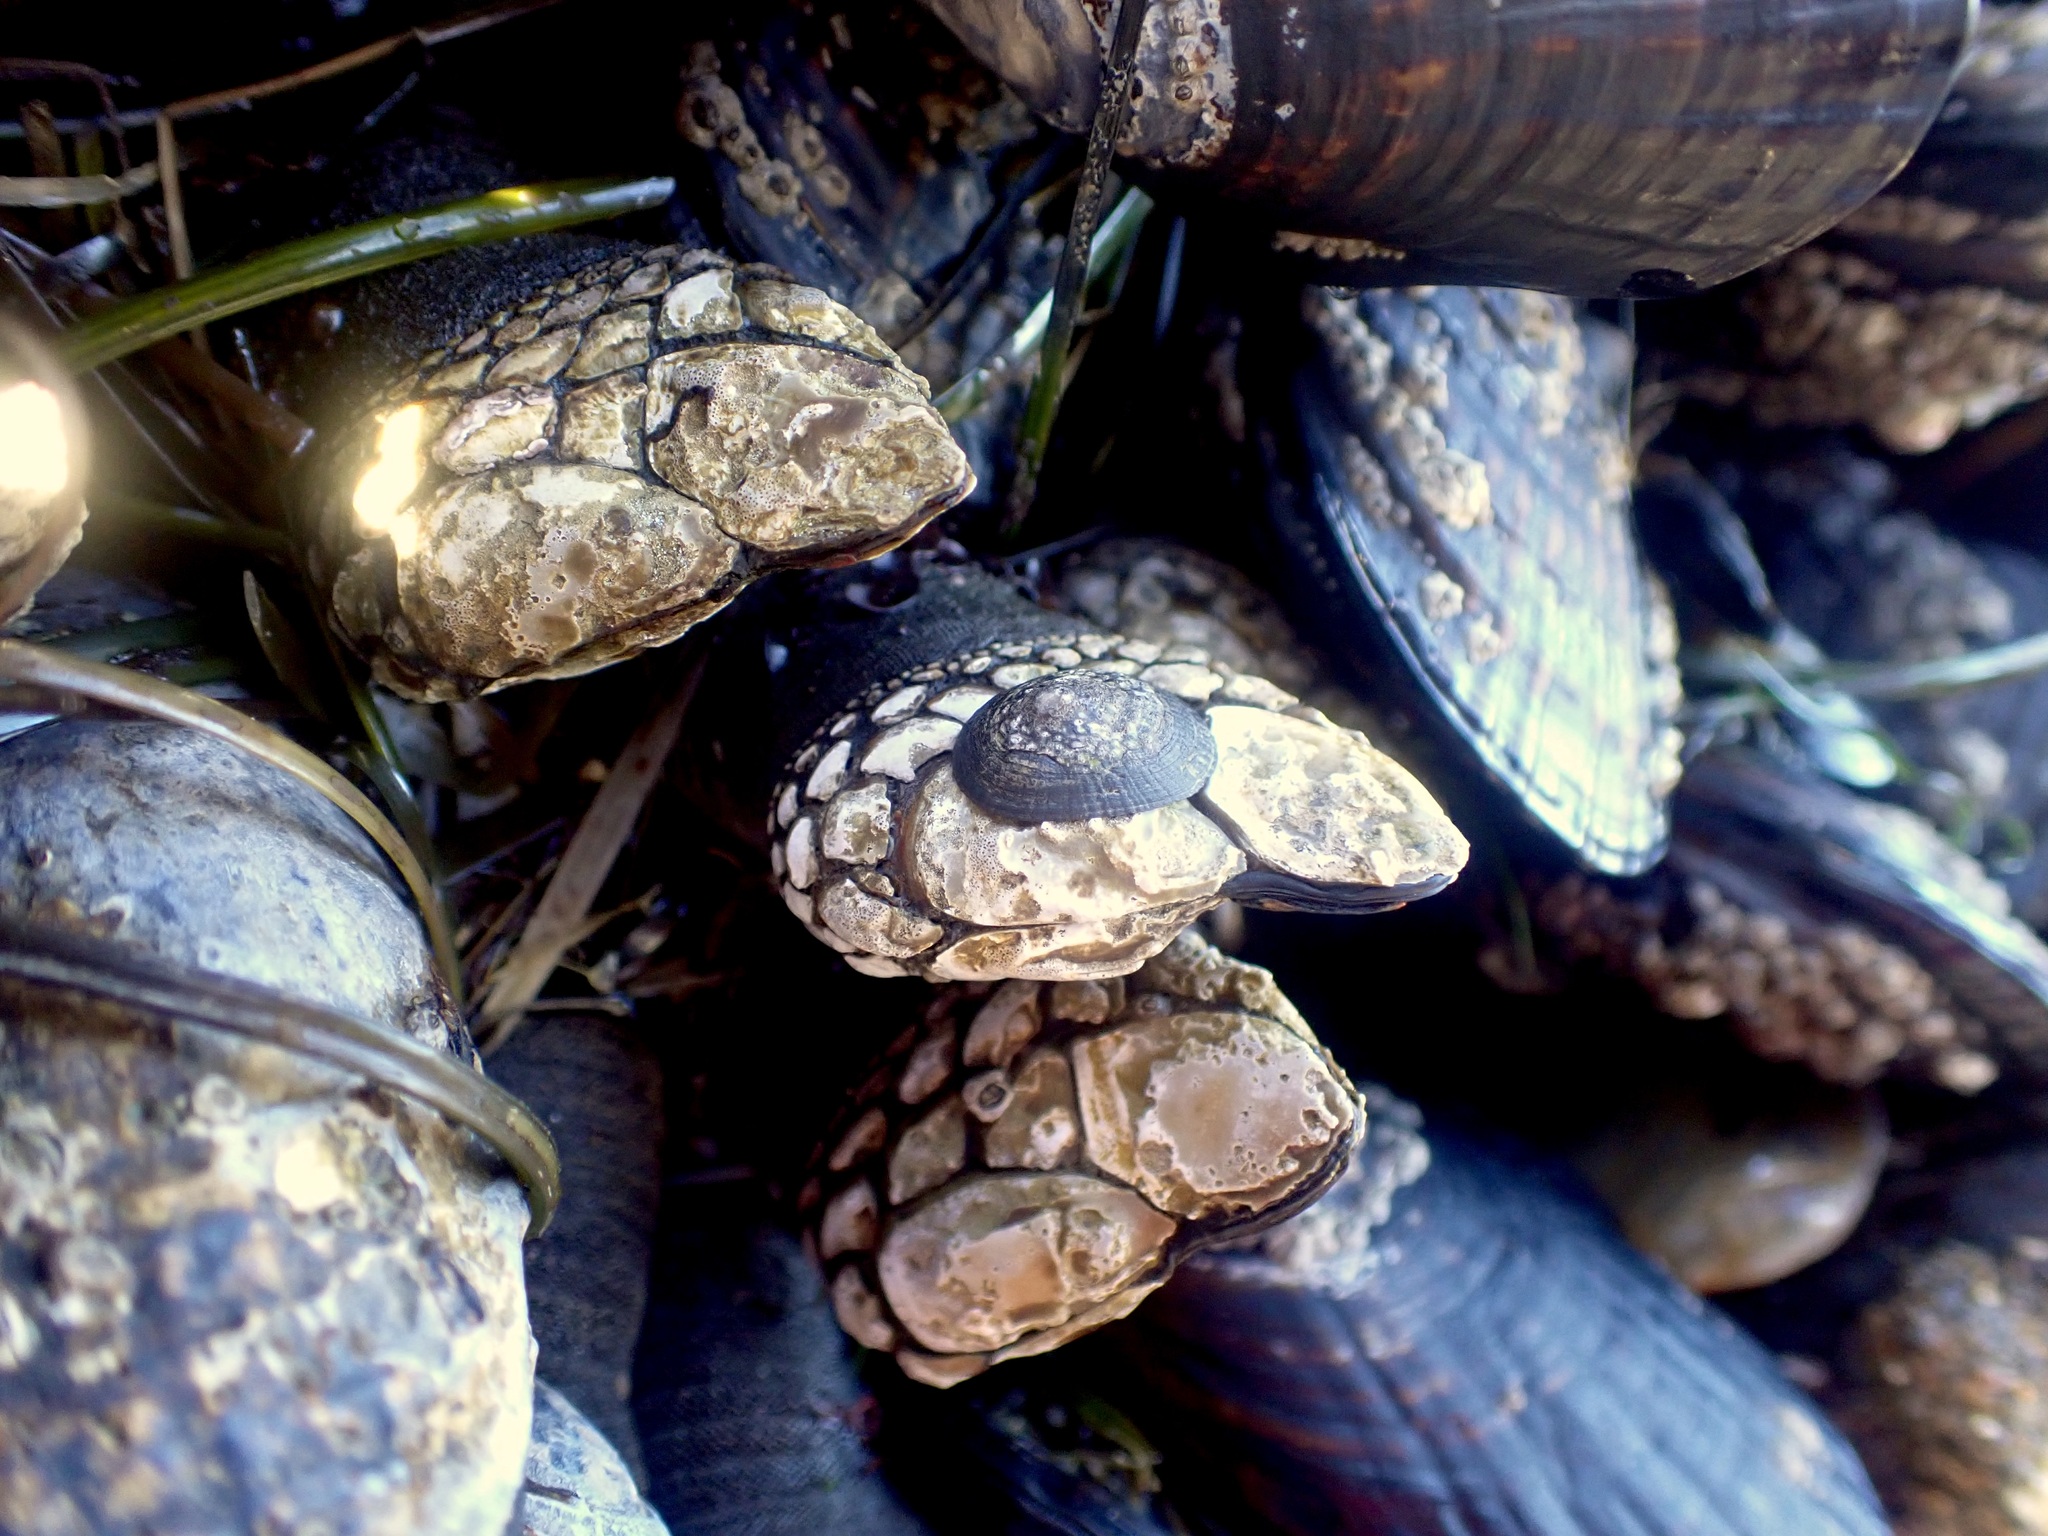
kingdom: Animalia
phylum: Arthropoda
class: Maxillopoda
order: Pedunculata
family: Pollicipedidae
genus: Pollicipes
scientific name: Pollicipes polymerus
